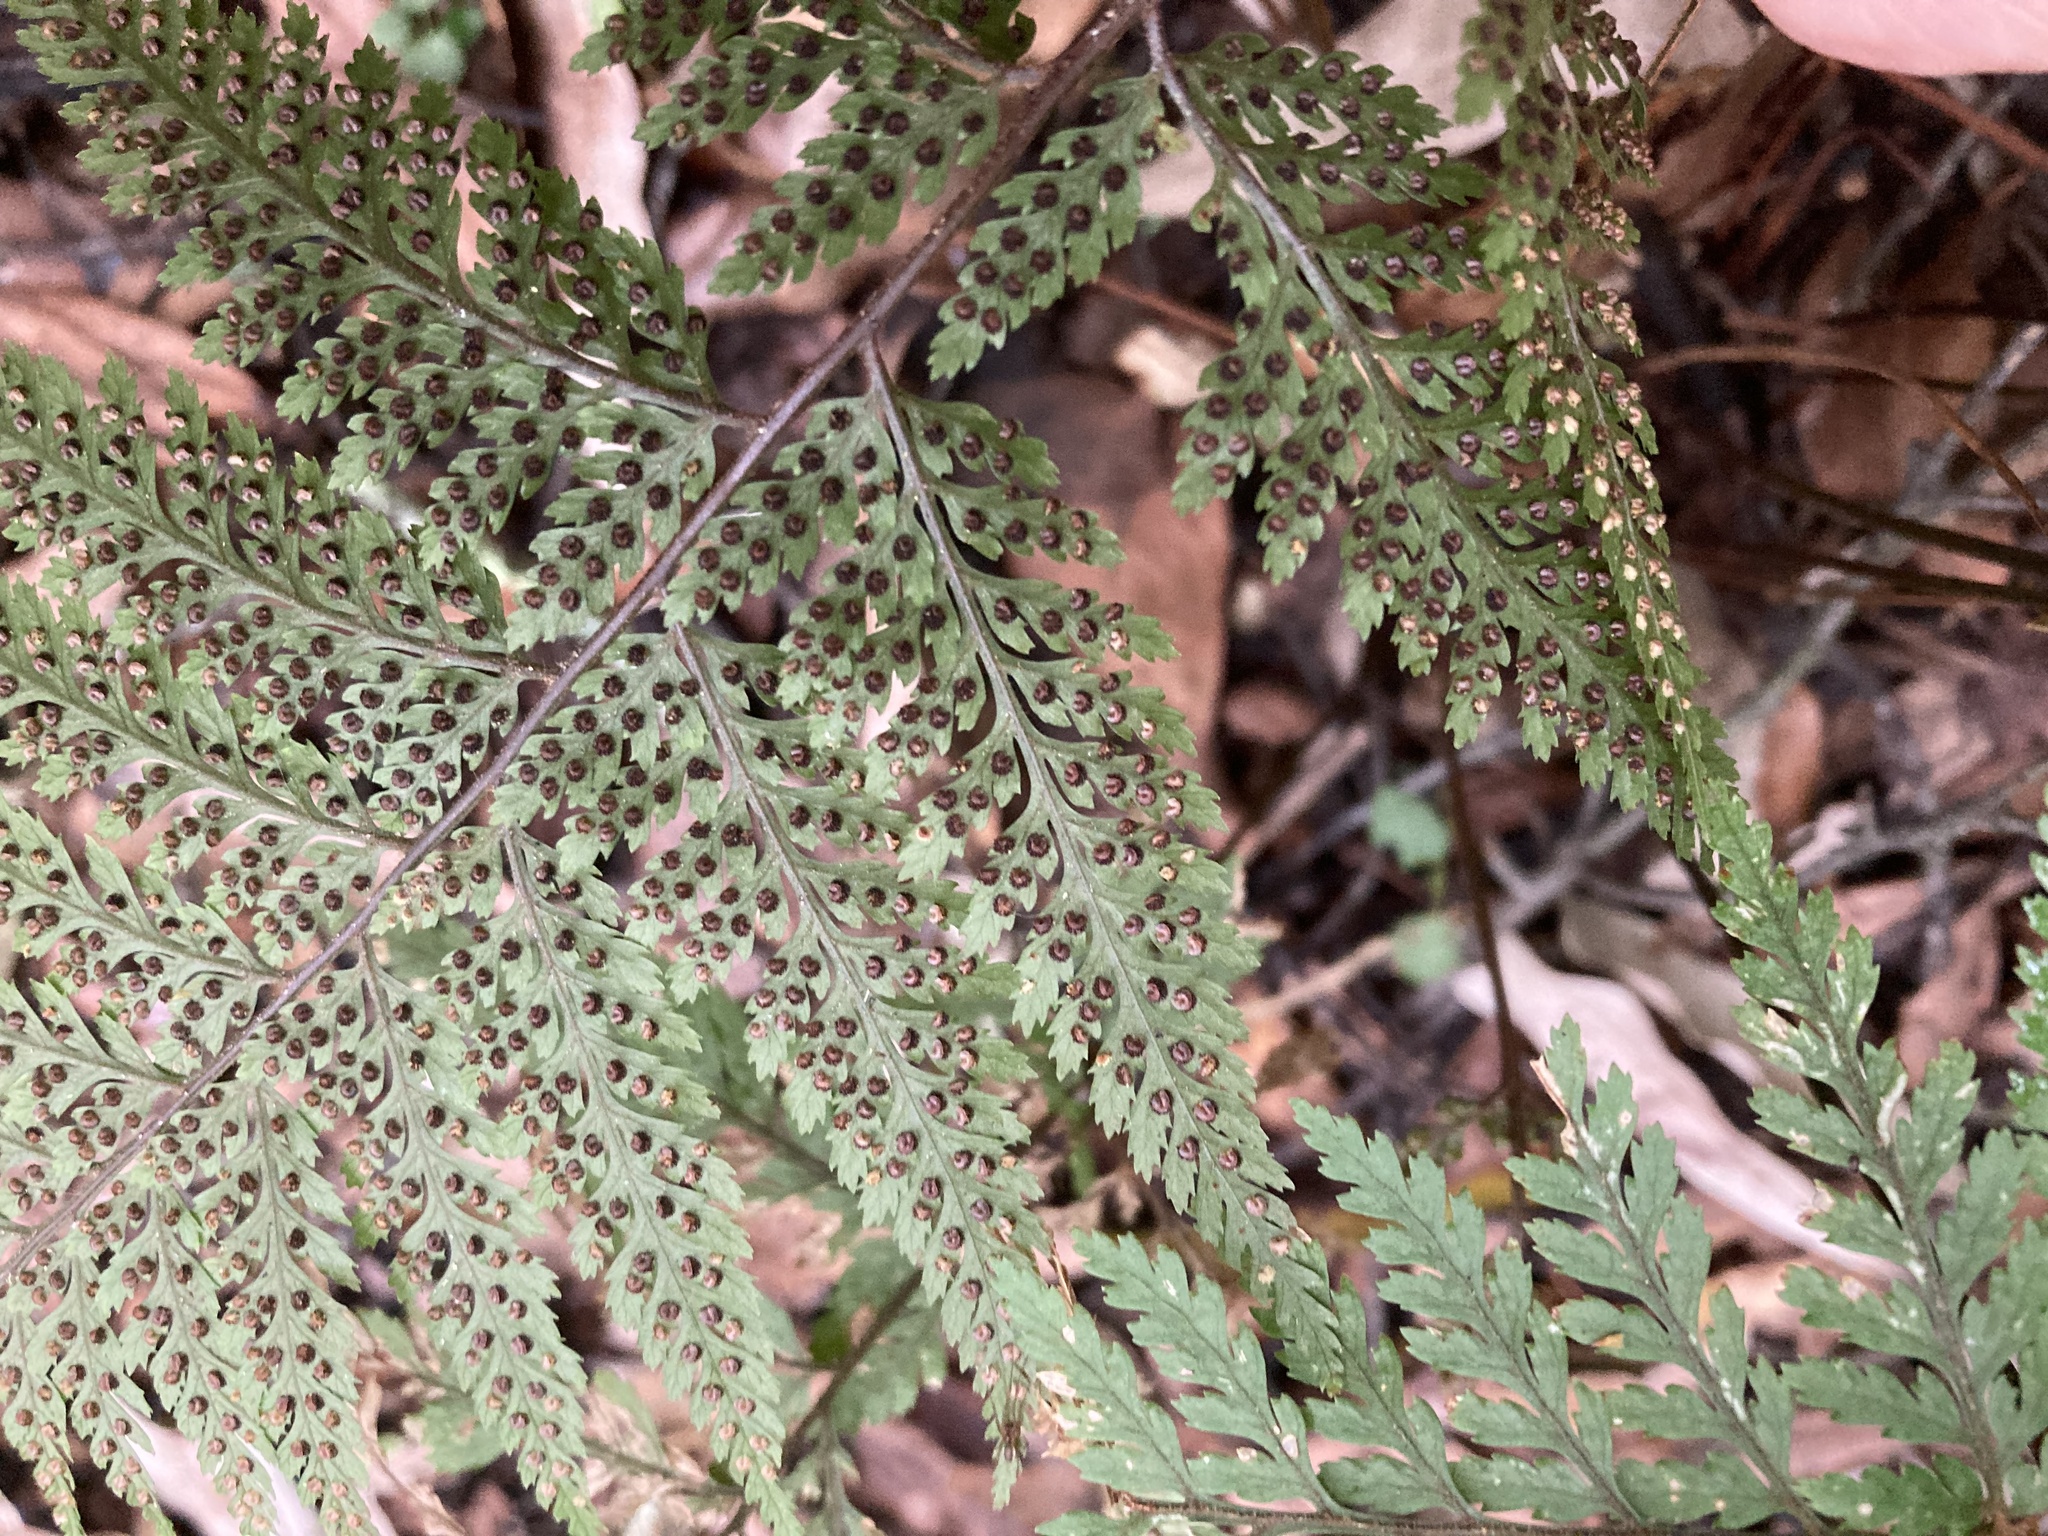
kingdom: Plantae
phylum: Tracheophyta
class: Polypodiopsida
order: Polypodiales
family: Dryopteridaceae
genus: Parapolystichum
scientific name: Parapolystichum glabellum
